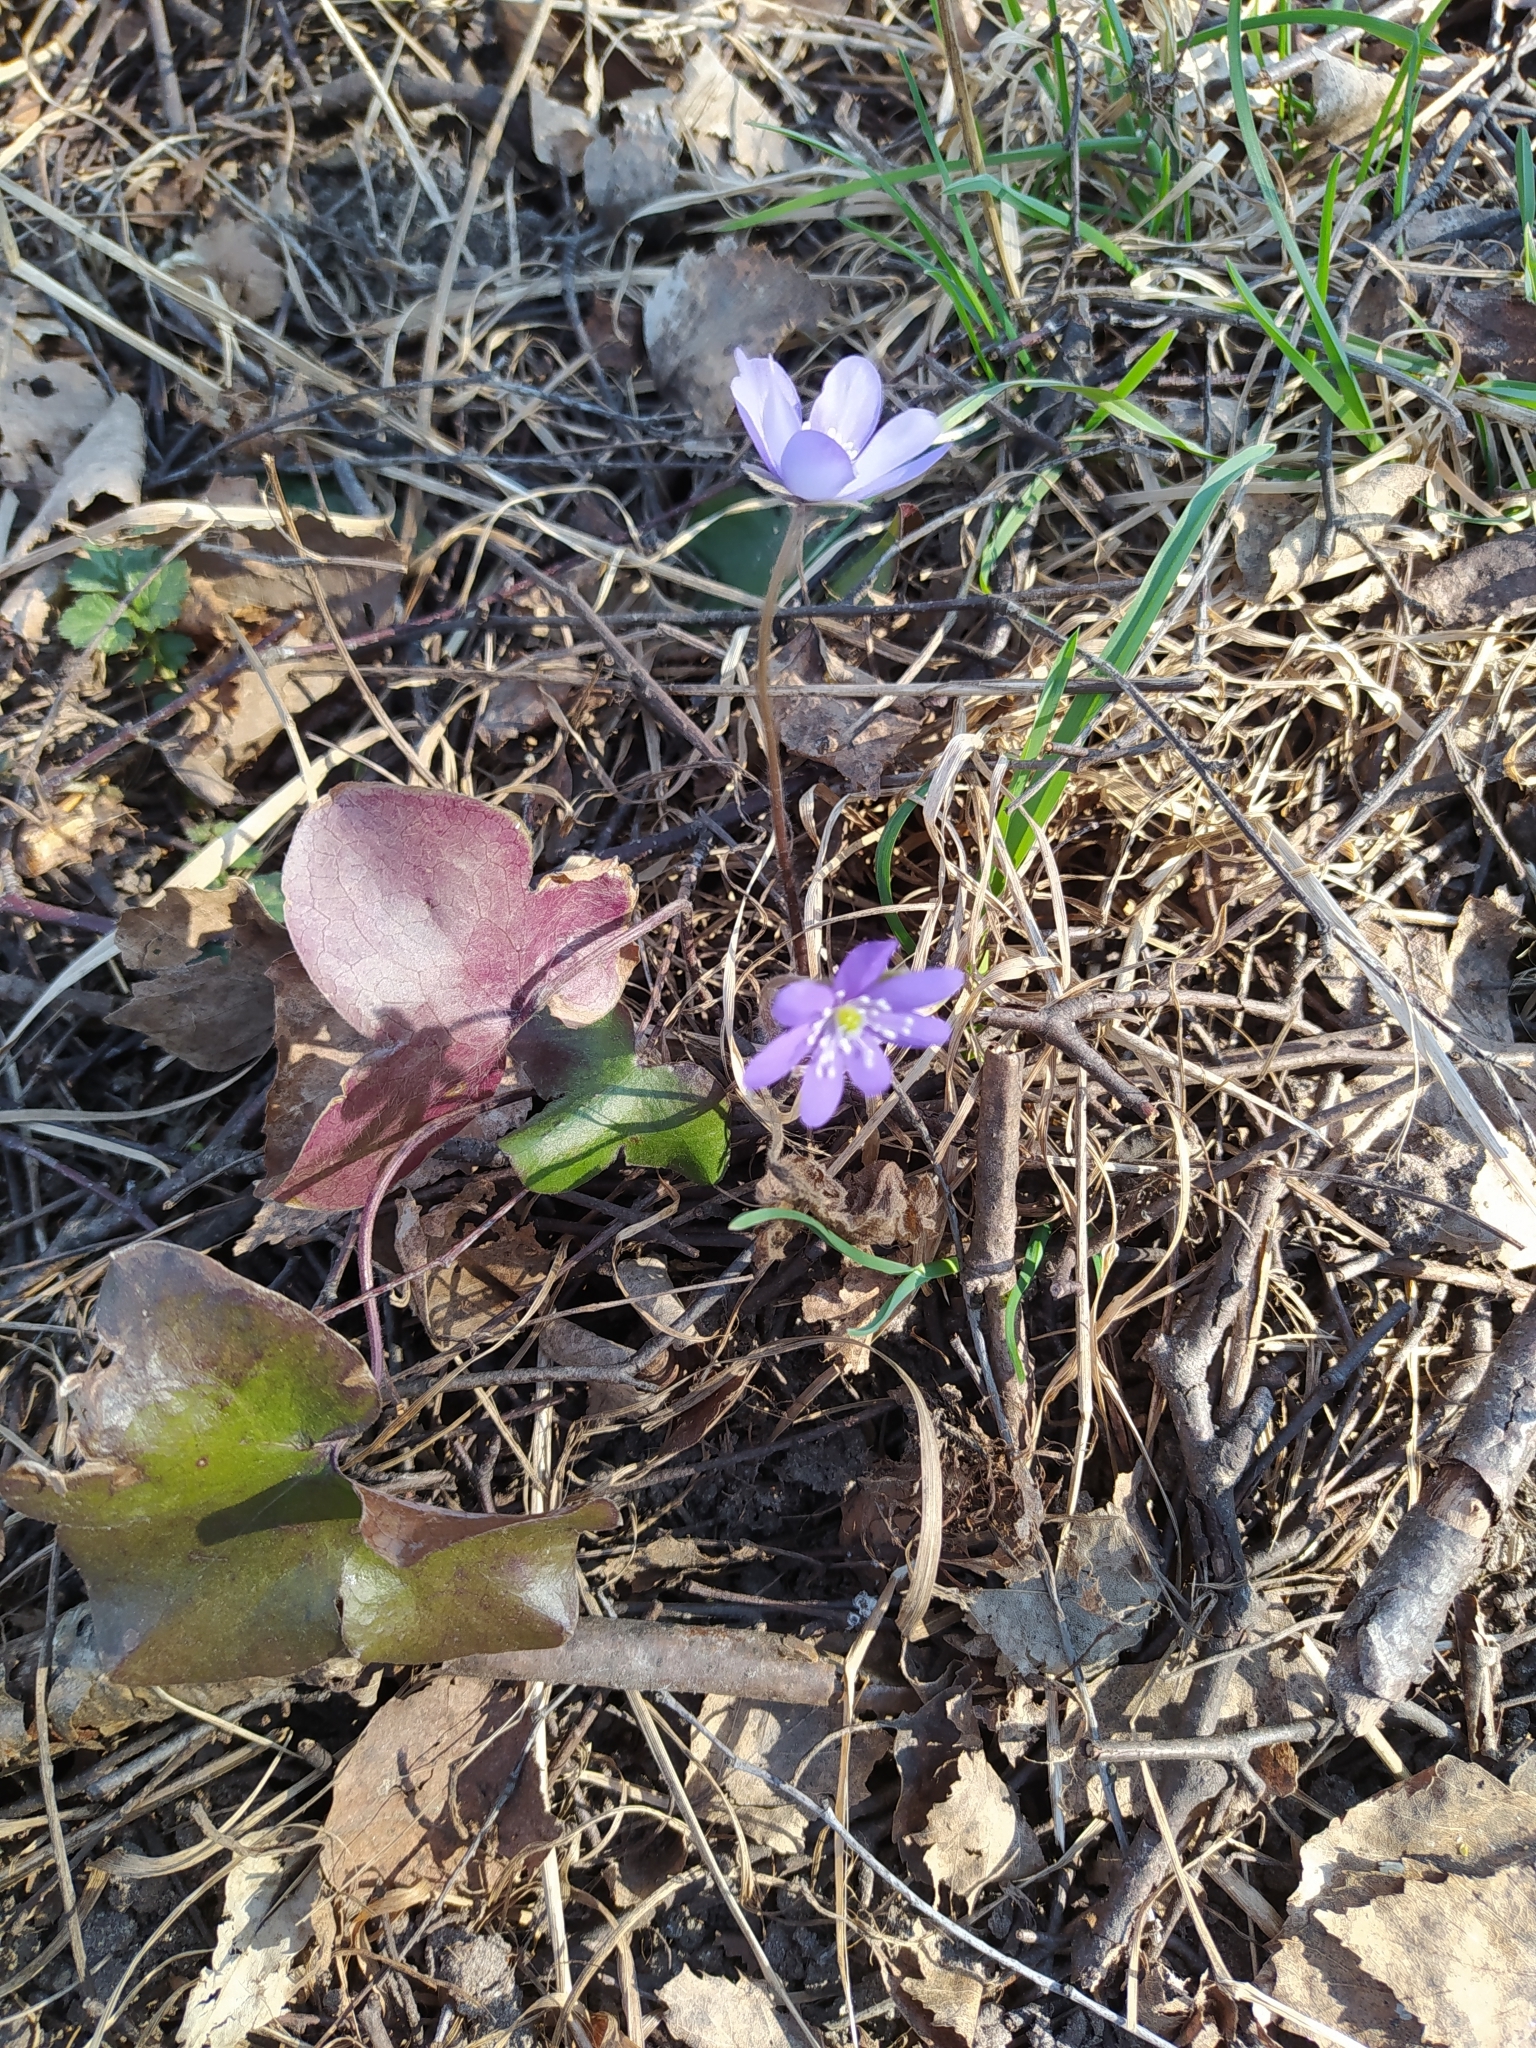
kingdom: Plantae
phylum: Tracheophyta
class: Magnoliopsida
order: Ranunculales
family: Ranunculaceae
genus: Hepatica
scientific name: Hepatica nobilis
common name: Liverleaf
